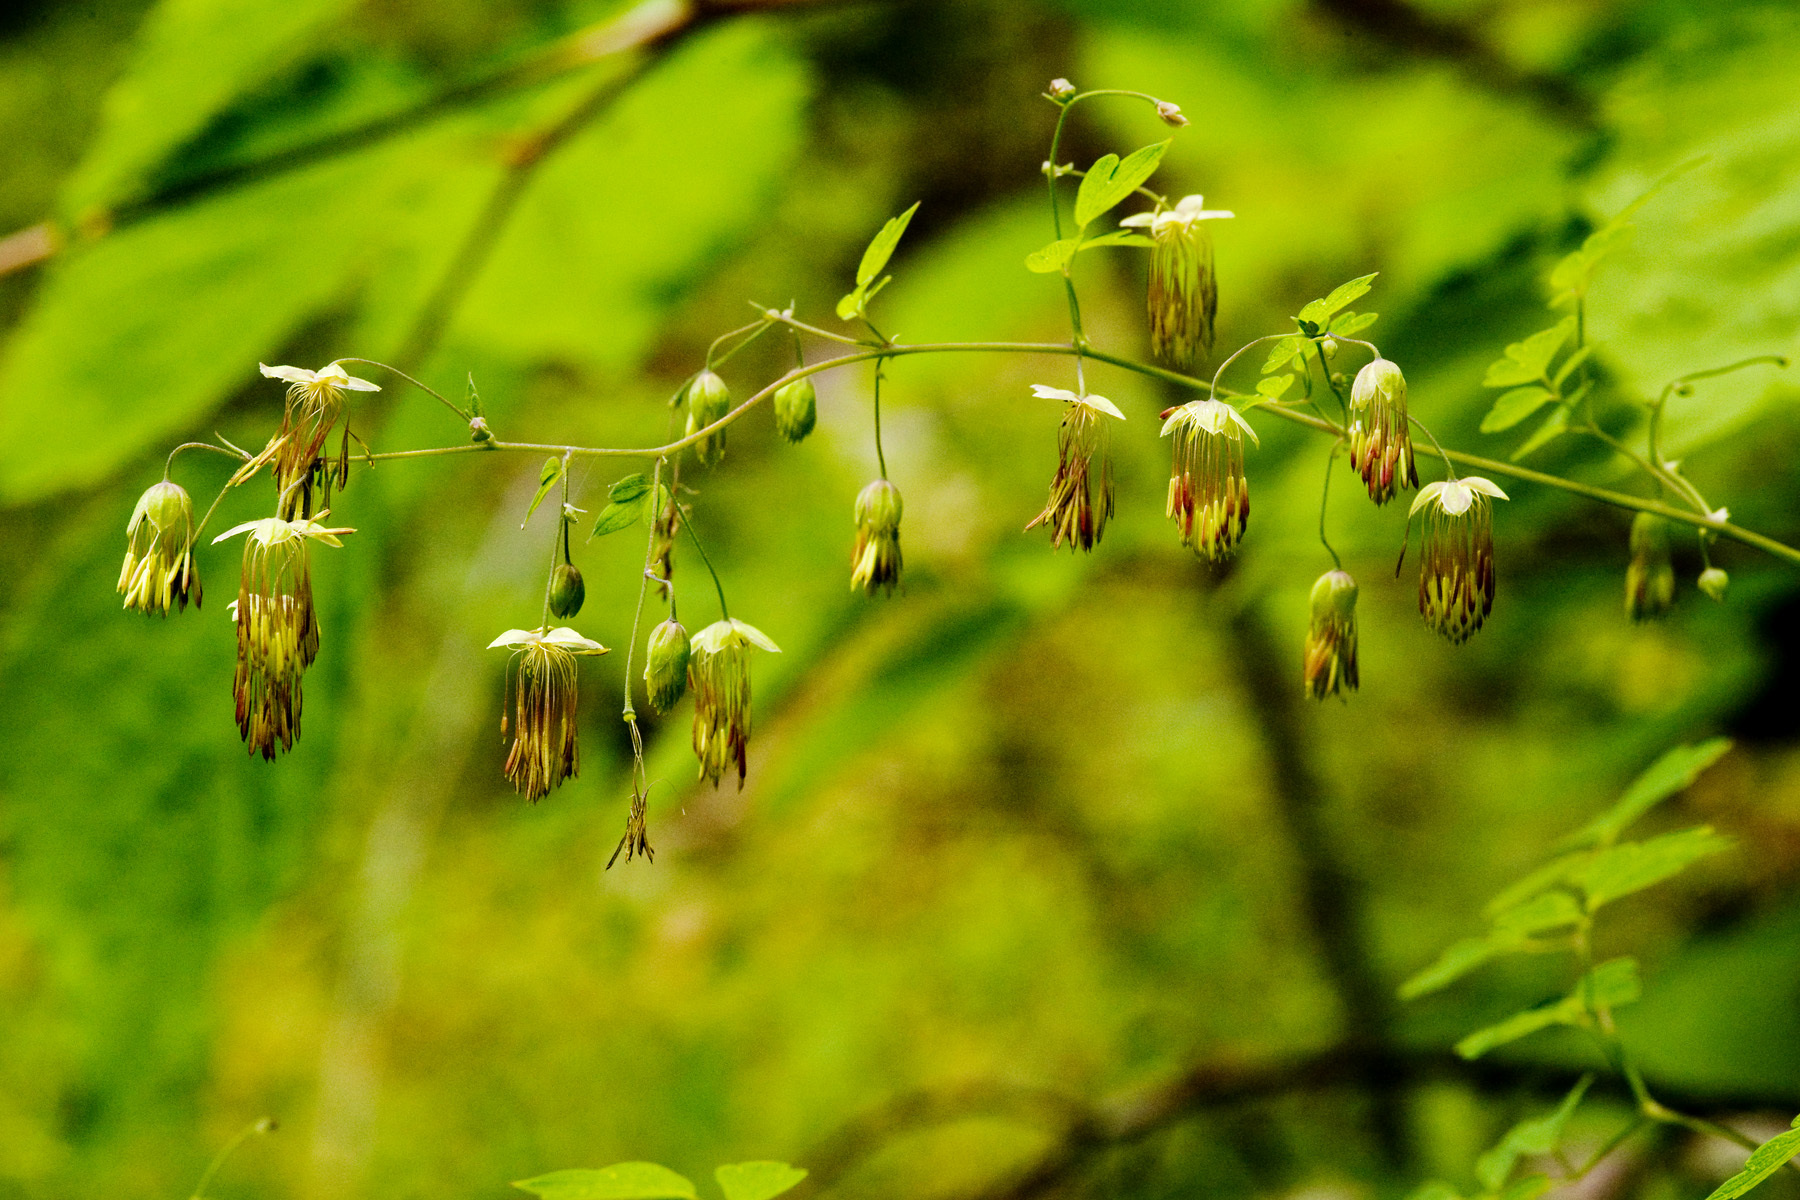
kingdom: Plantae
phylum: Tracheophyta
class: Magnoliopsida
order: Ranunculales
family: Ranunculaceae
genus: Thalictrum
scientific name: Thalictrum fendleri
